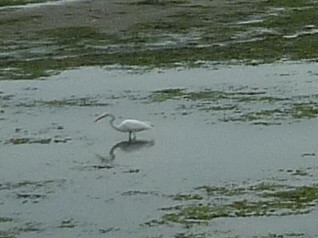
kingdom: Animalia
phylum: Chordata
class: Aves
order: Pelecaniformes
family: Ardeidae
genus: Ardea
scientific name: Ardea alba
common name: Great egret
